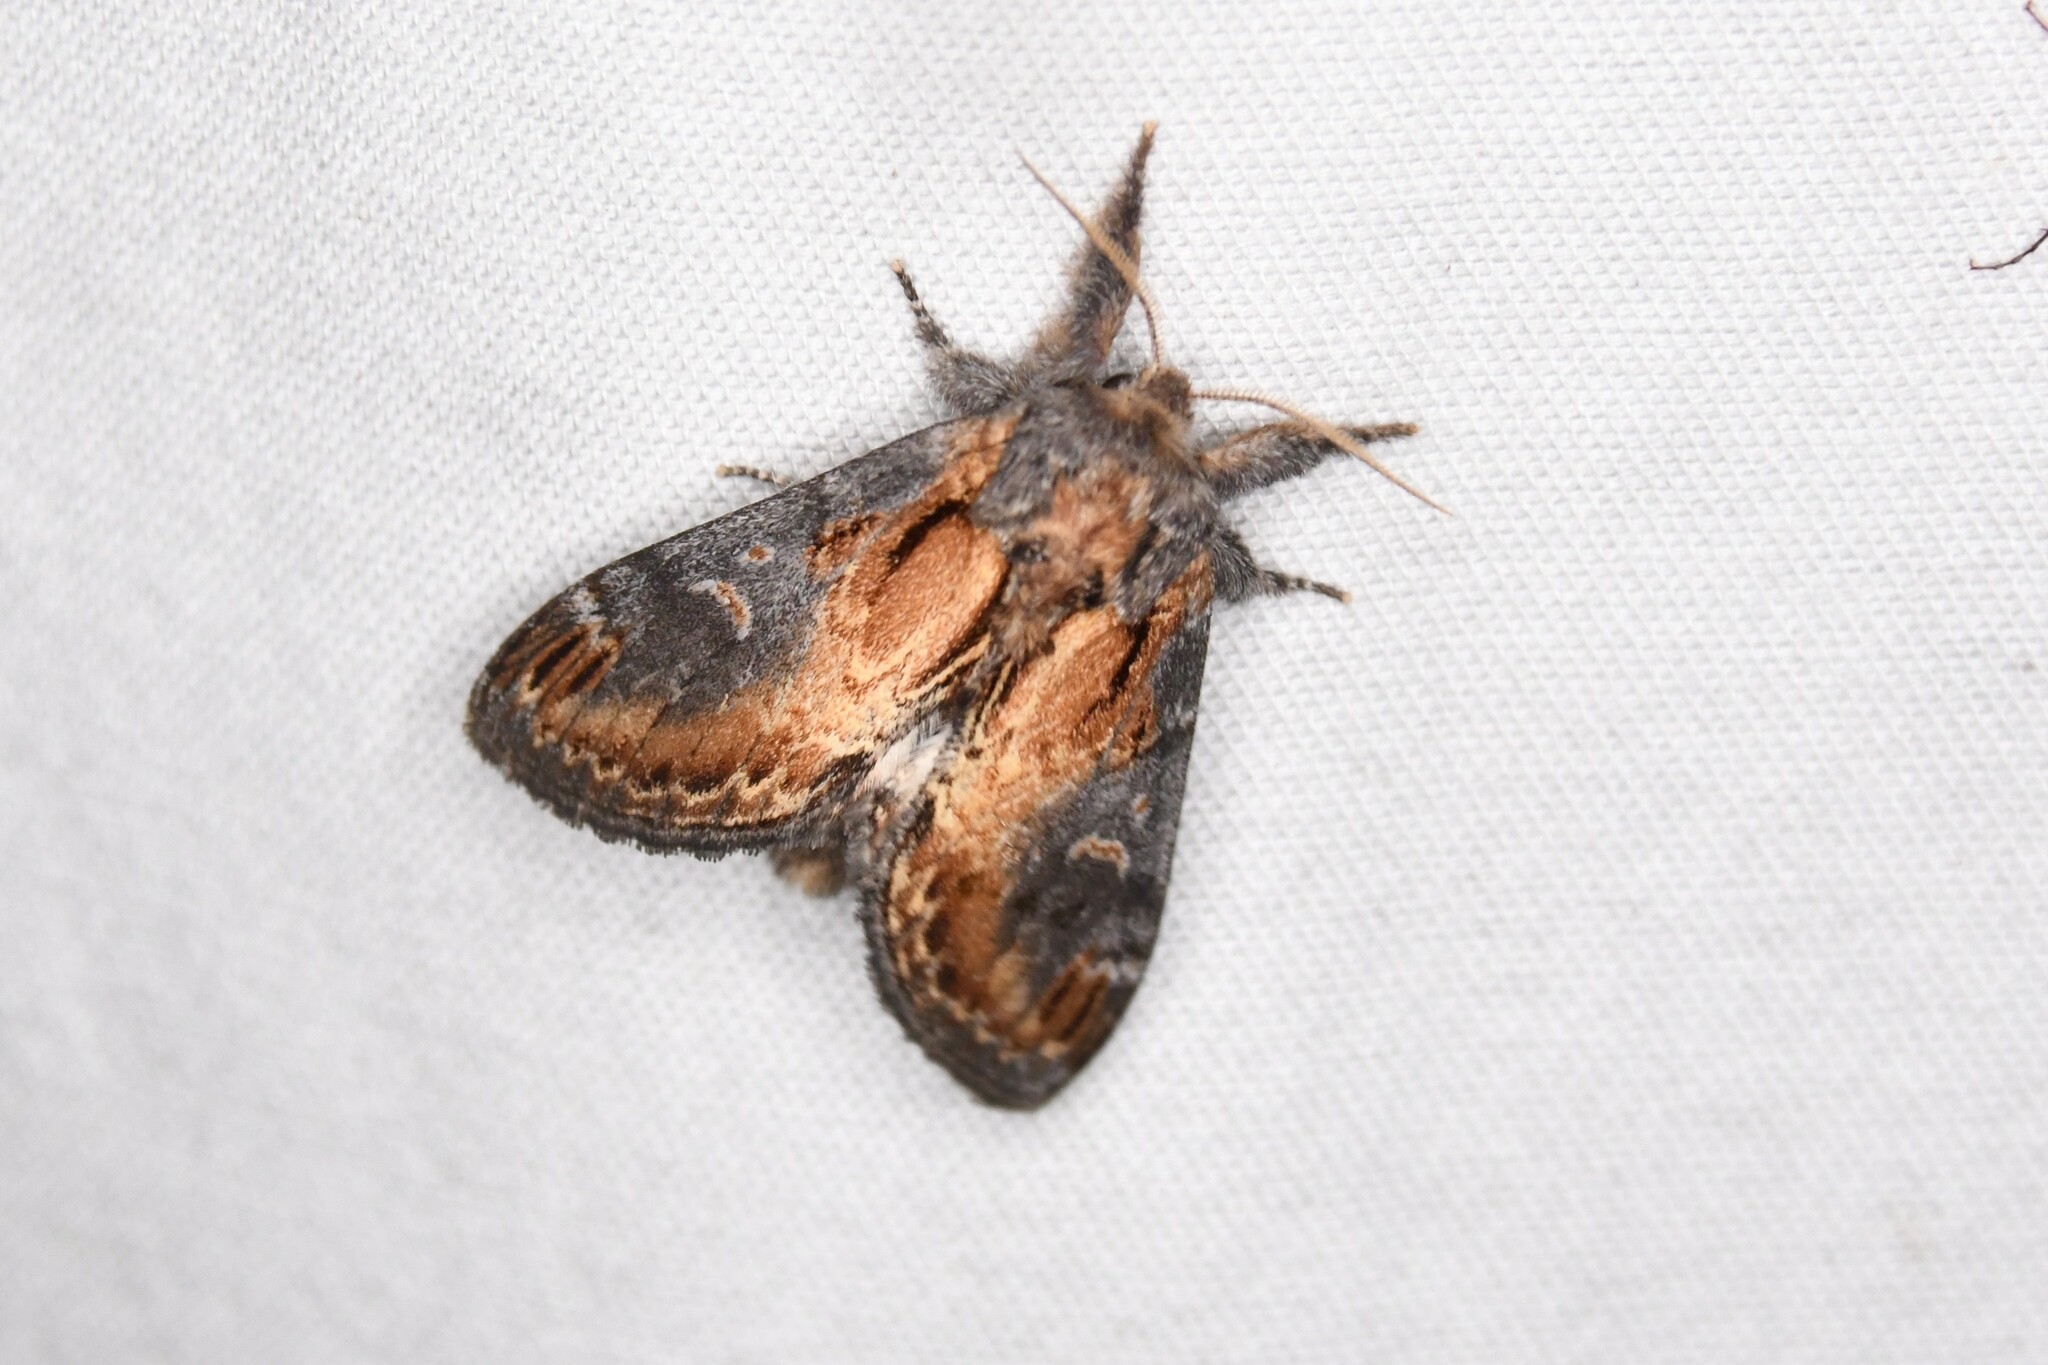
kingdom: Animalia
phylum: Arthropoda
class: Insecta
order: Lepidoptera
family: Notodontidae
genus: Notodonta
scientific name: Notodonta scitipennis
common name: Finned-willow prominent moth
